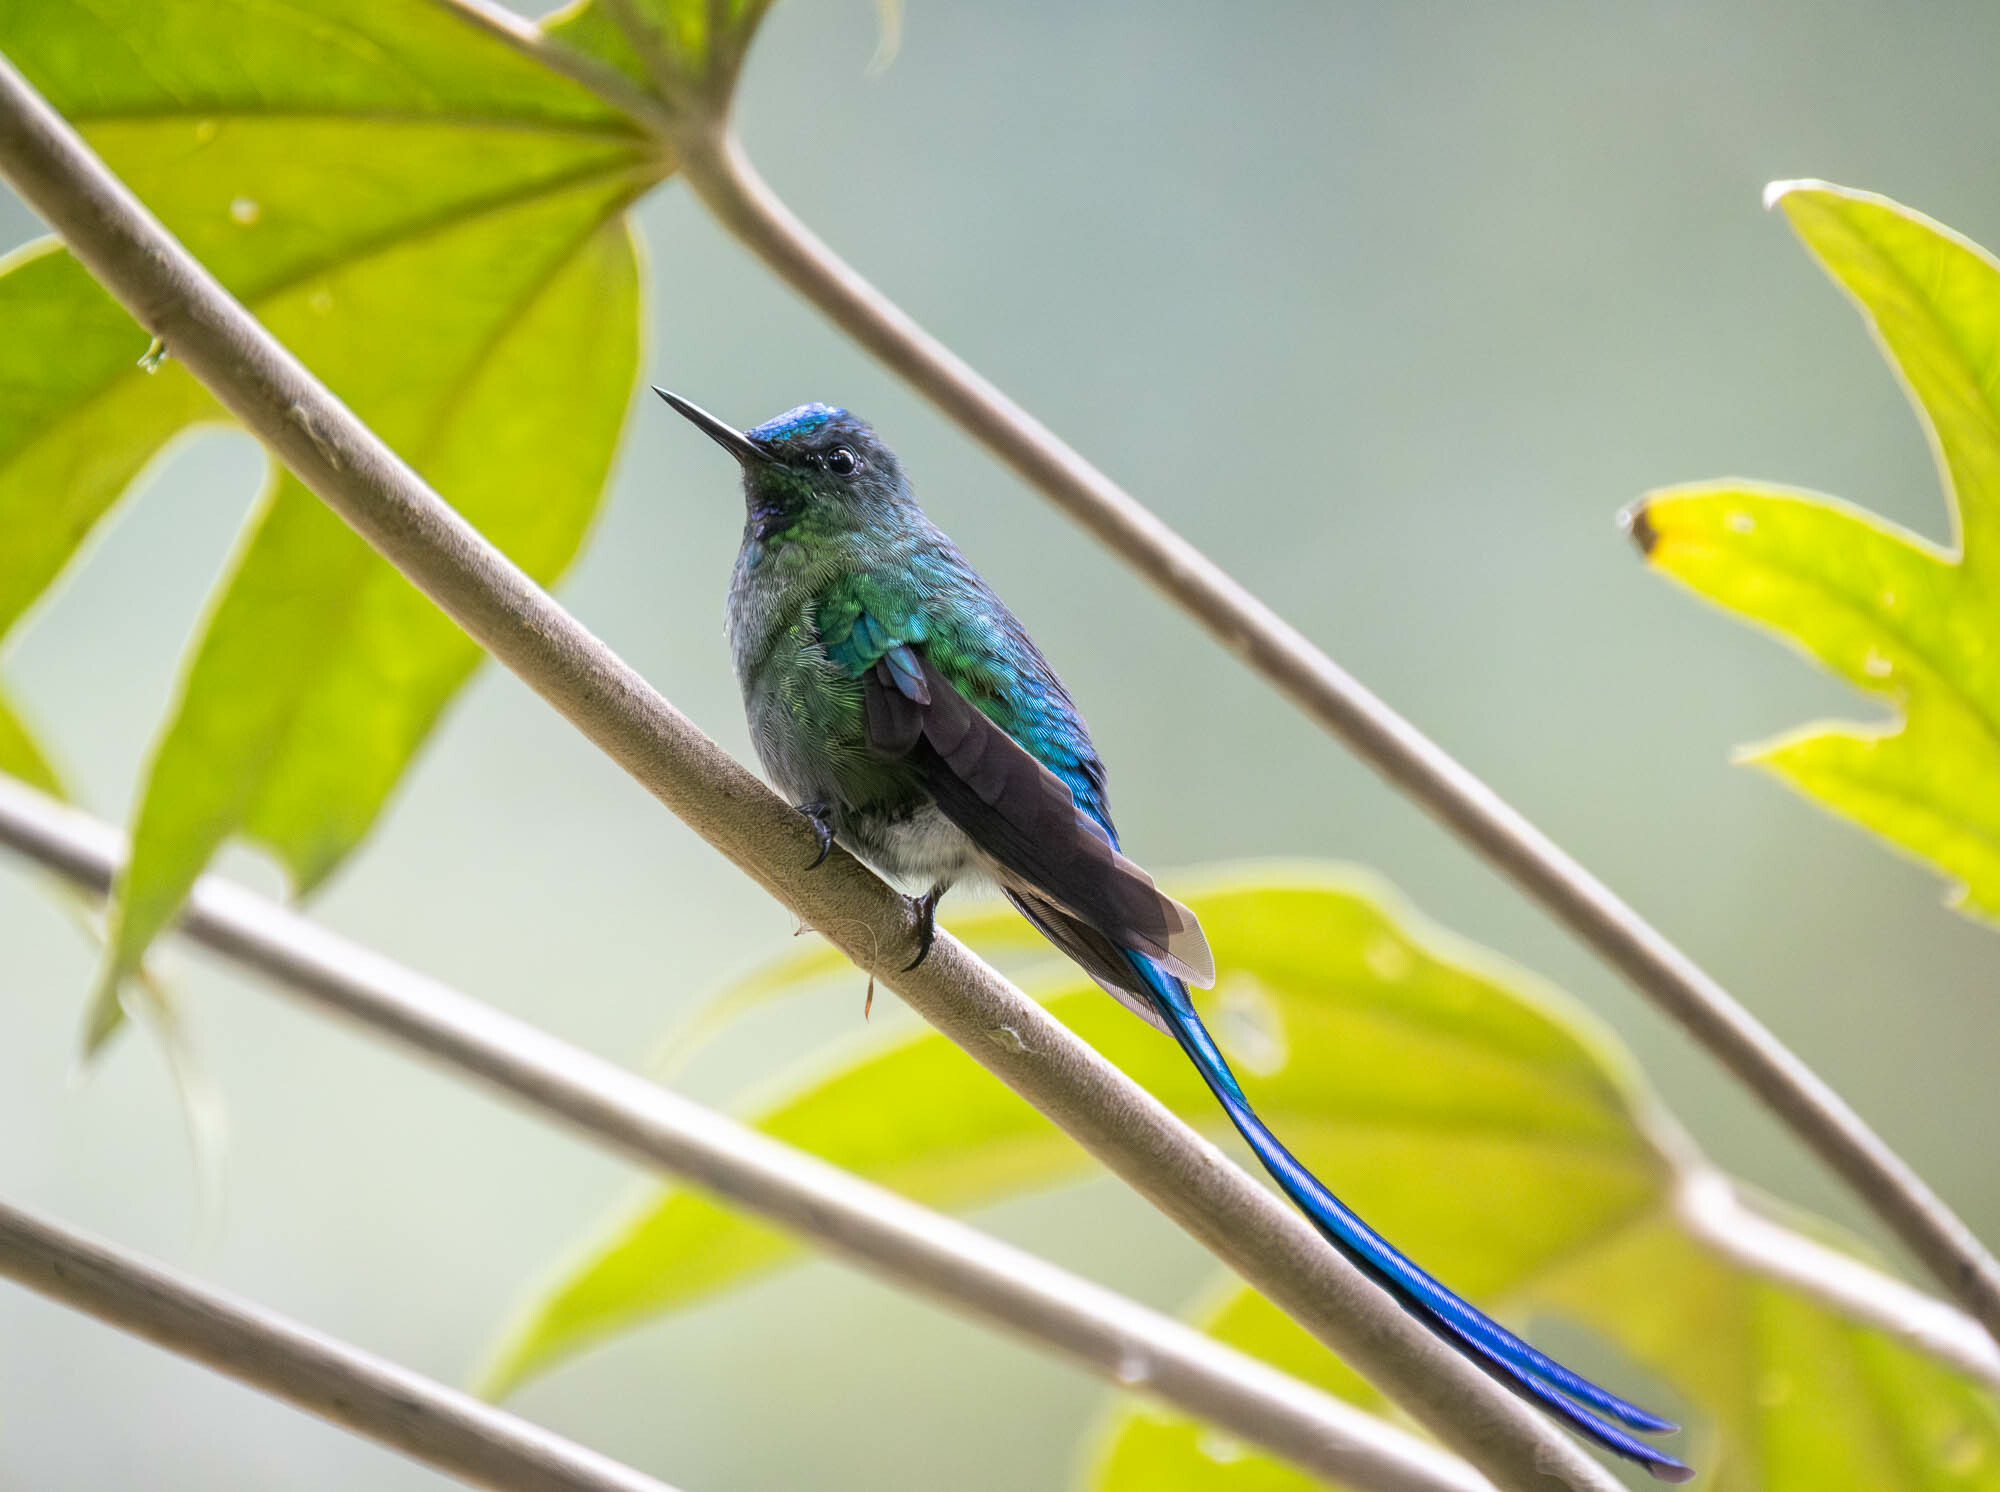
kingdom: Animalia
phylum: Chordata
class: Aves
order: Apodiformes
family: Trochilidae
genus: Aglaiocercus
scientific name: Aglaiocercus kingii
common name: Long-tailed sylph
